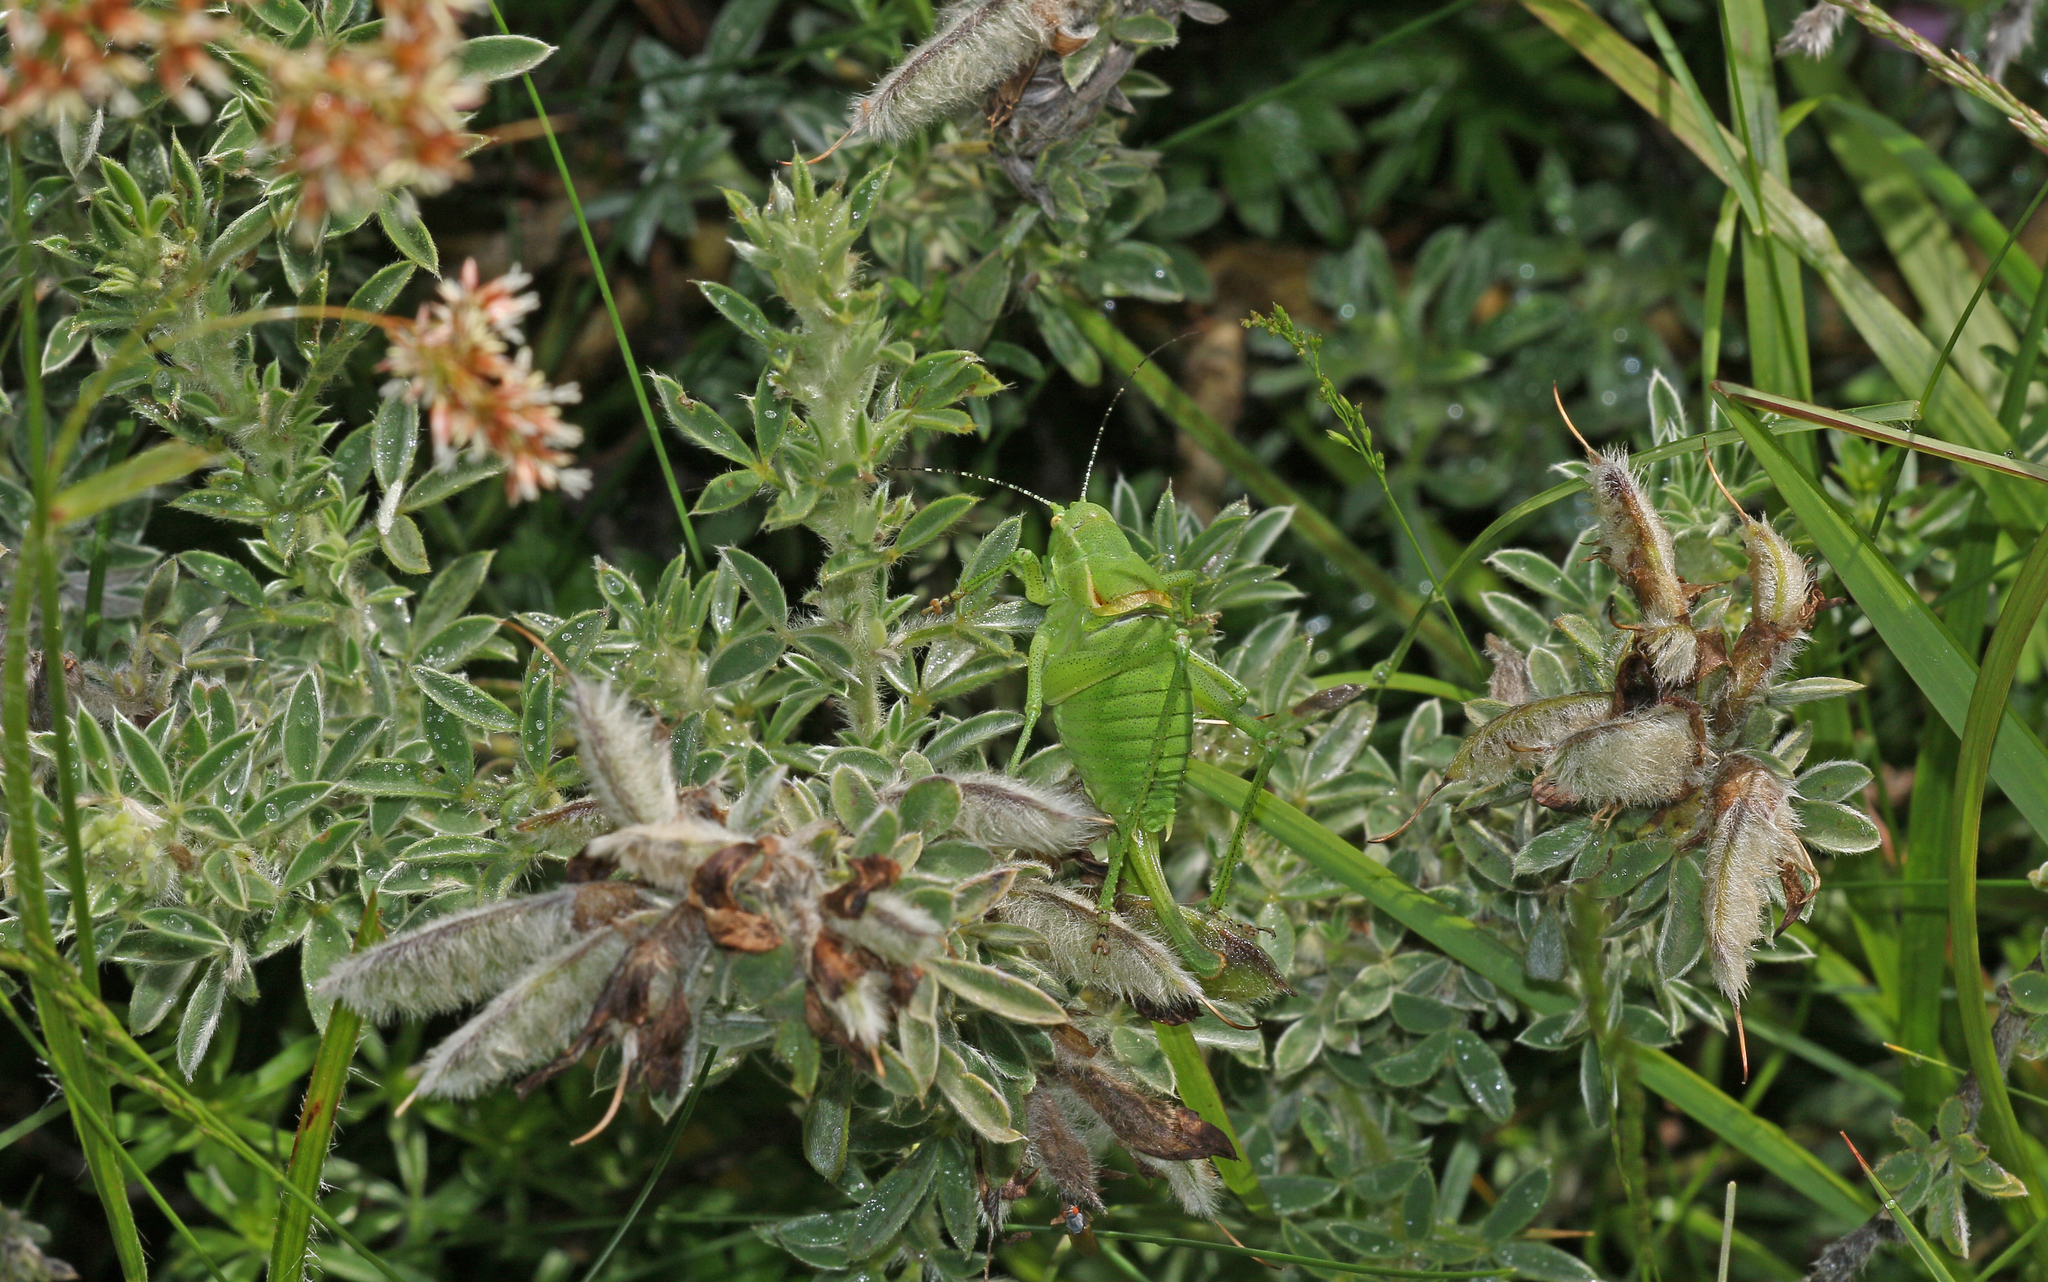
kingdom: Animalia
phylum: Arthropoda
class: Insecta
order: Orthoptera
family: Tettigoniidae
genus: Poecilimon
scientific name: Poecilimon ornatus
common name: Ornate bright bush-cricket
